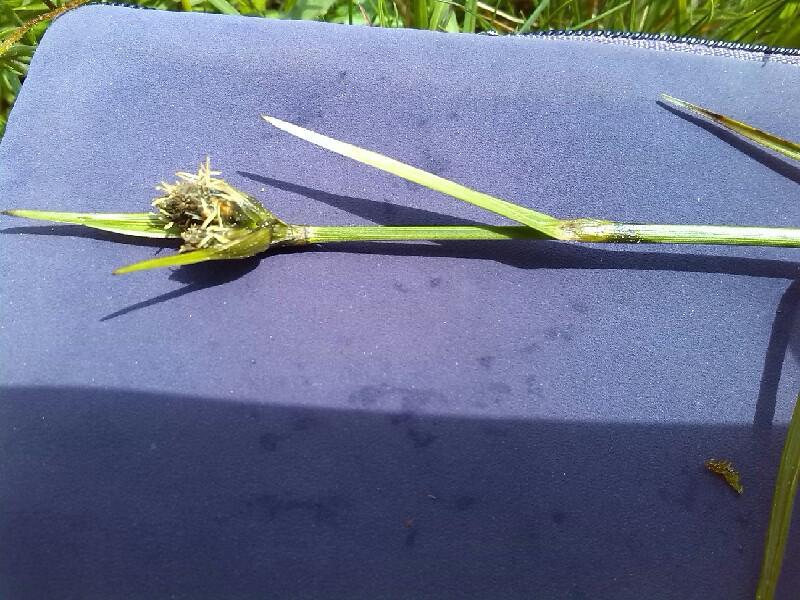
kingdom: Plantae
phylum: Tracheophyta
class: Liliopsida
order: Poales
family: Cyperaceae
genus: Eriophorum
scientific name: Eriophorum latifolium
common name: Broad-leaved cottongrass
